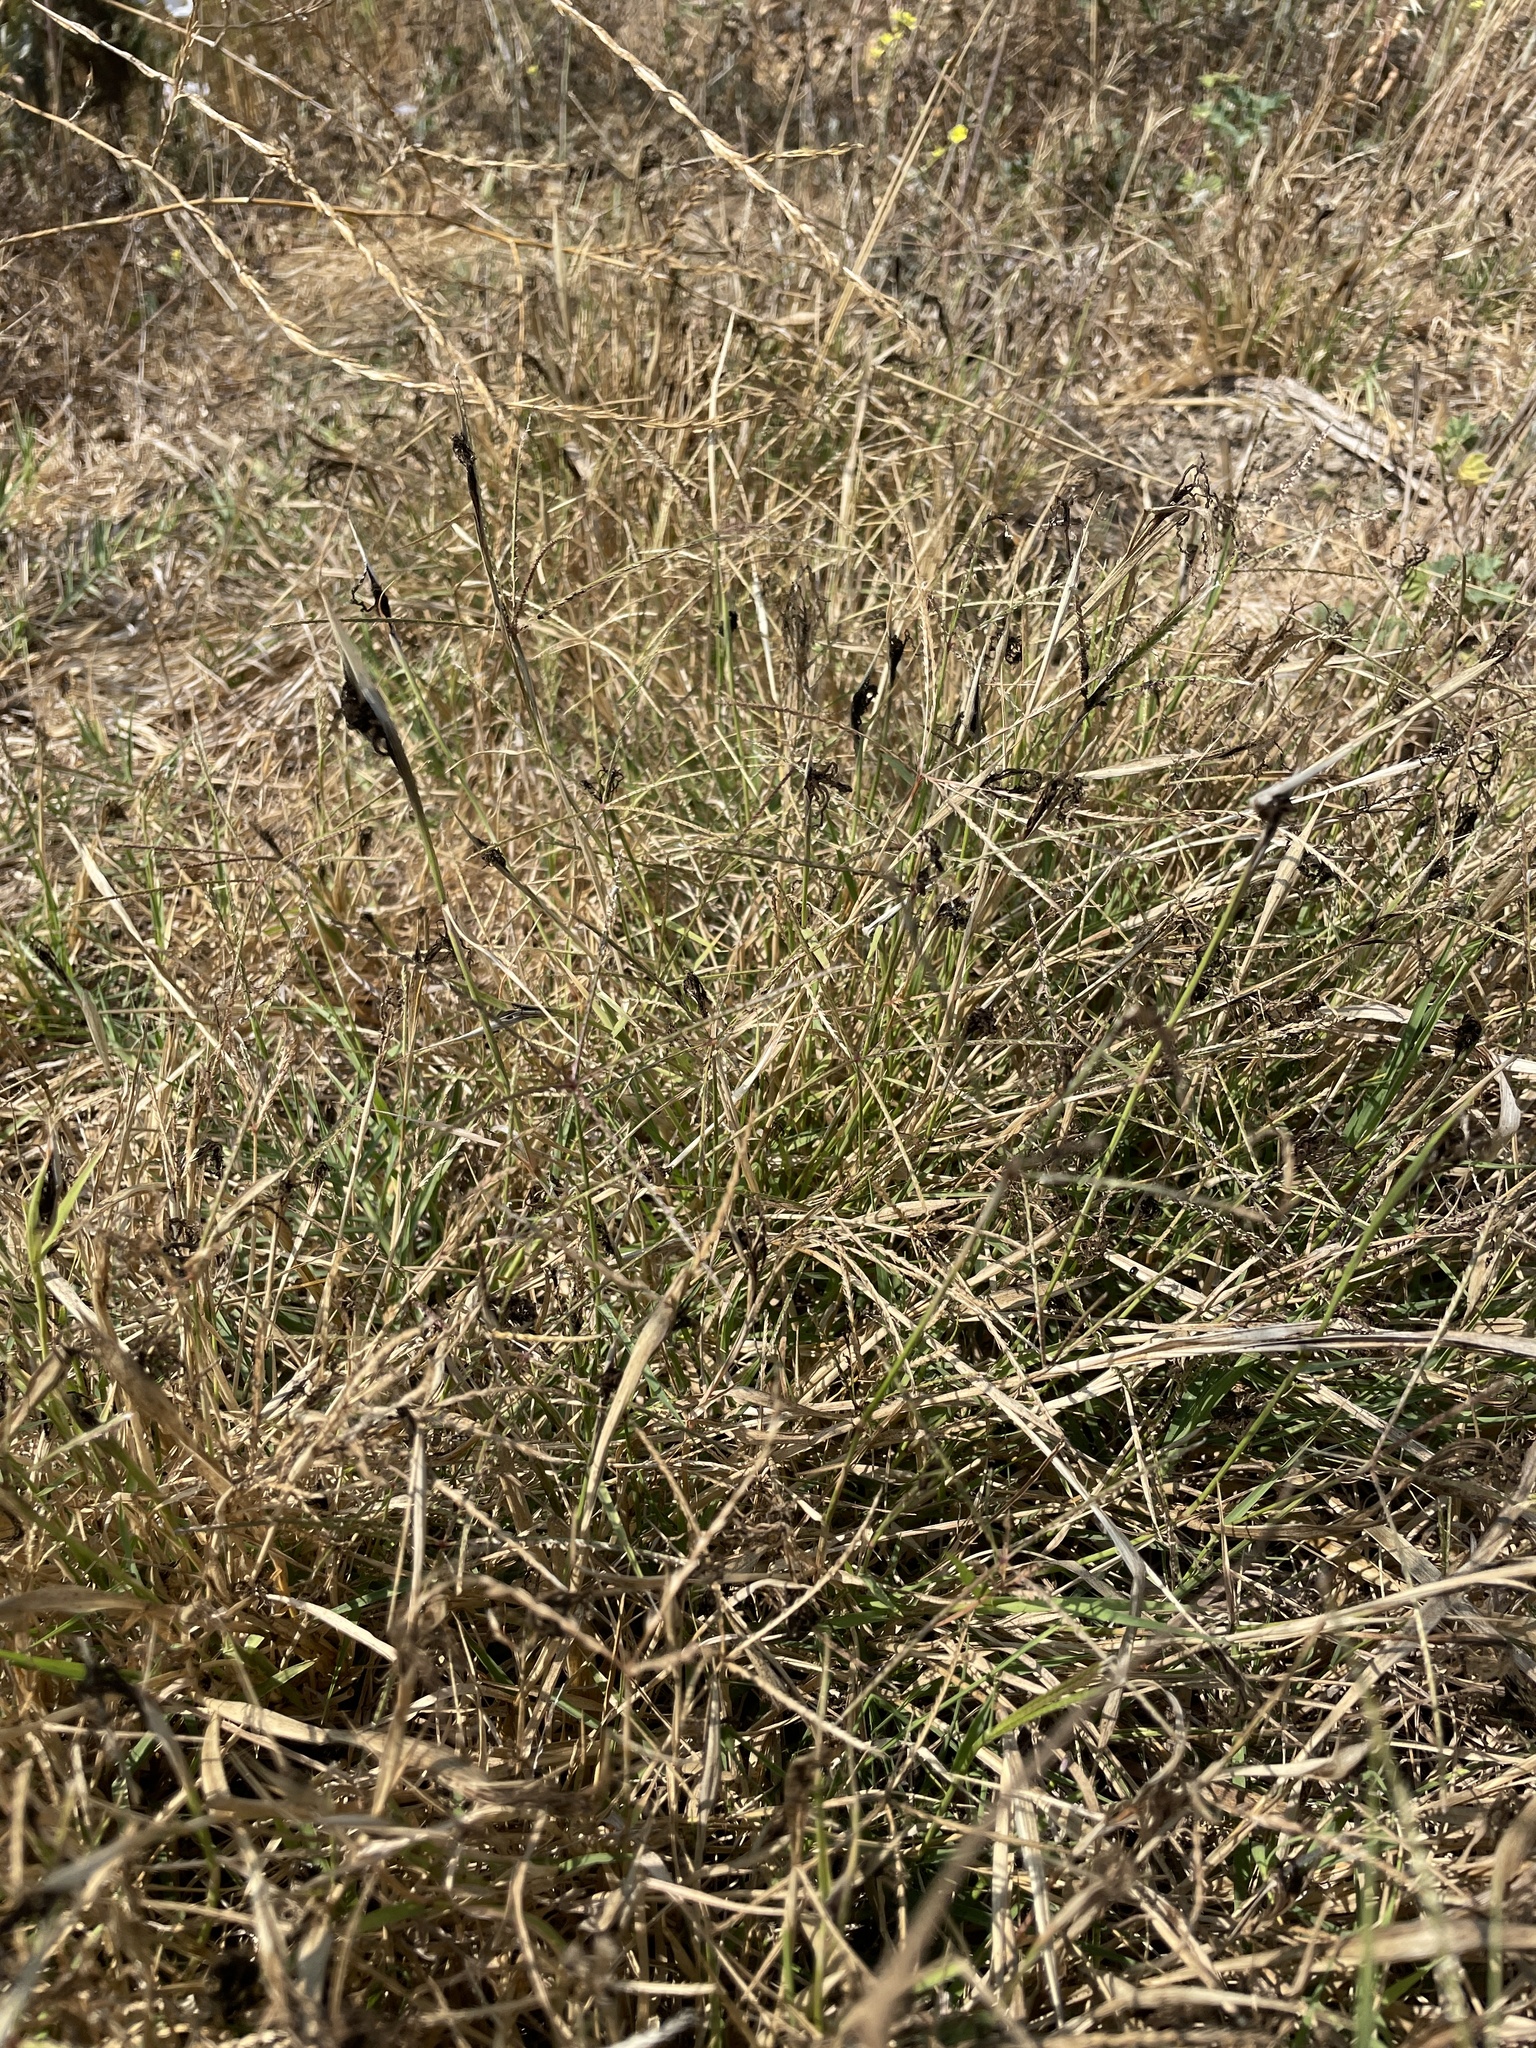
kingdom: Fungi
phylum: Basidiomycota
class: Ustilaginomycetes
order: Ustilaginales
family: Ustilaginaceae
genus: Ustilago
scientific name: Ustilago cynodontis
